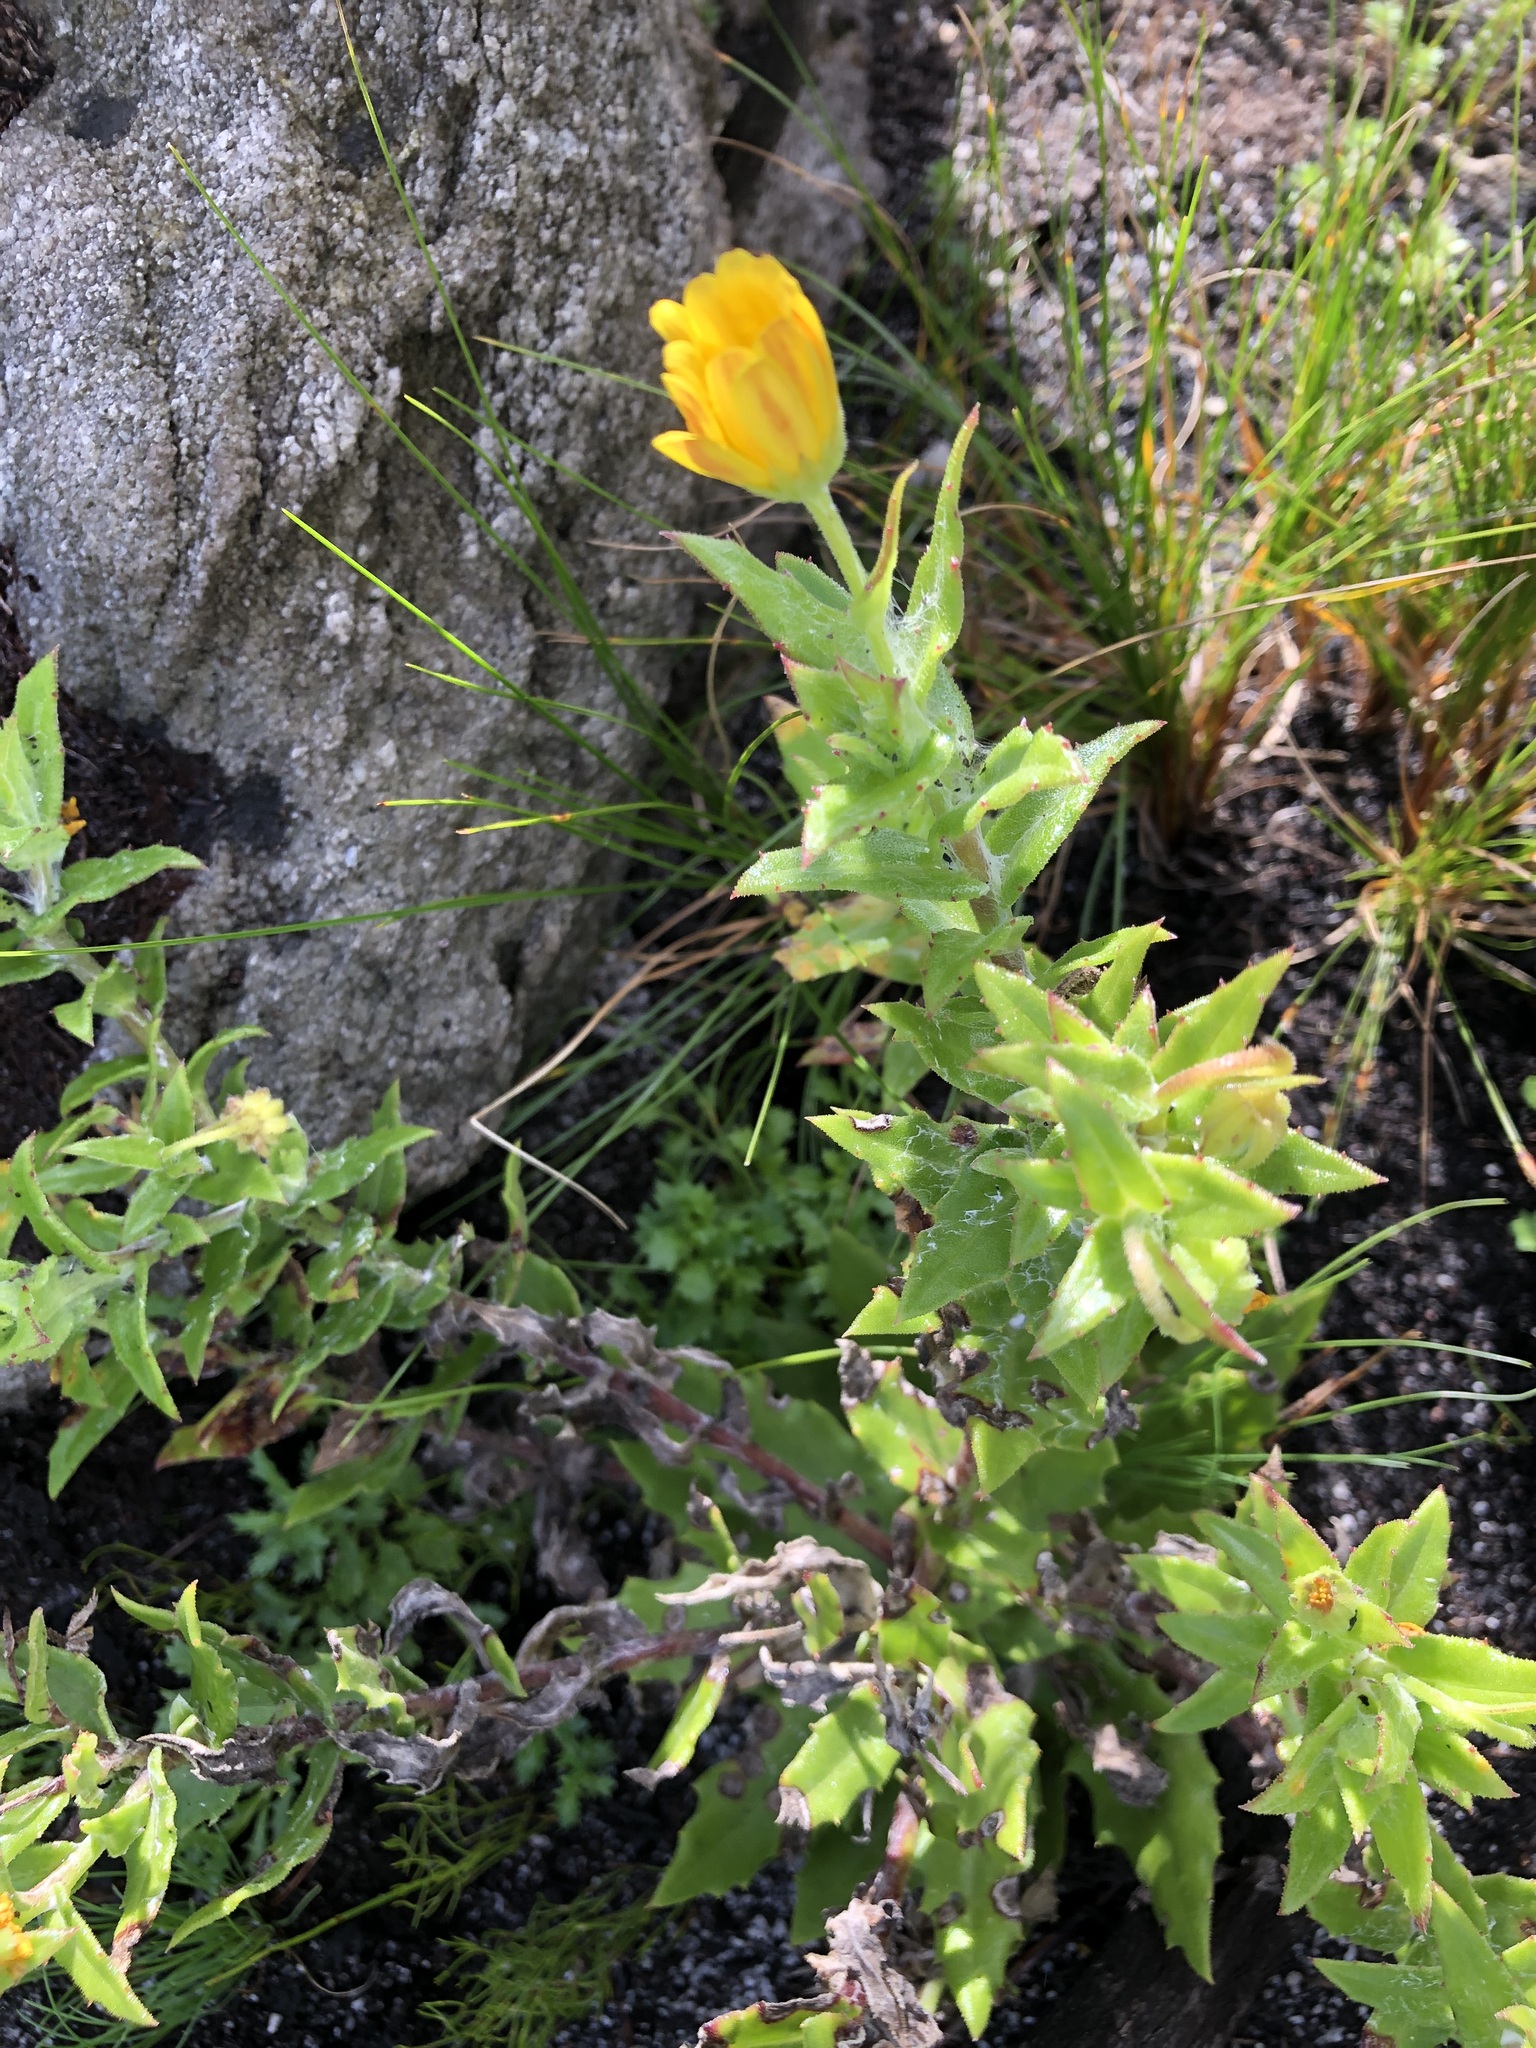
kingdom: Plantae
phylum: Tracheophyta
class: Magnoliopsida
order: Asterales
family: Asteraceae
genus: Osteospermum
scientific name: Osteospermum ilicifolium
